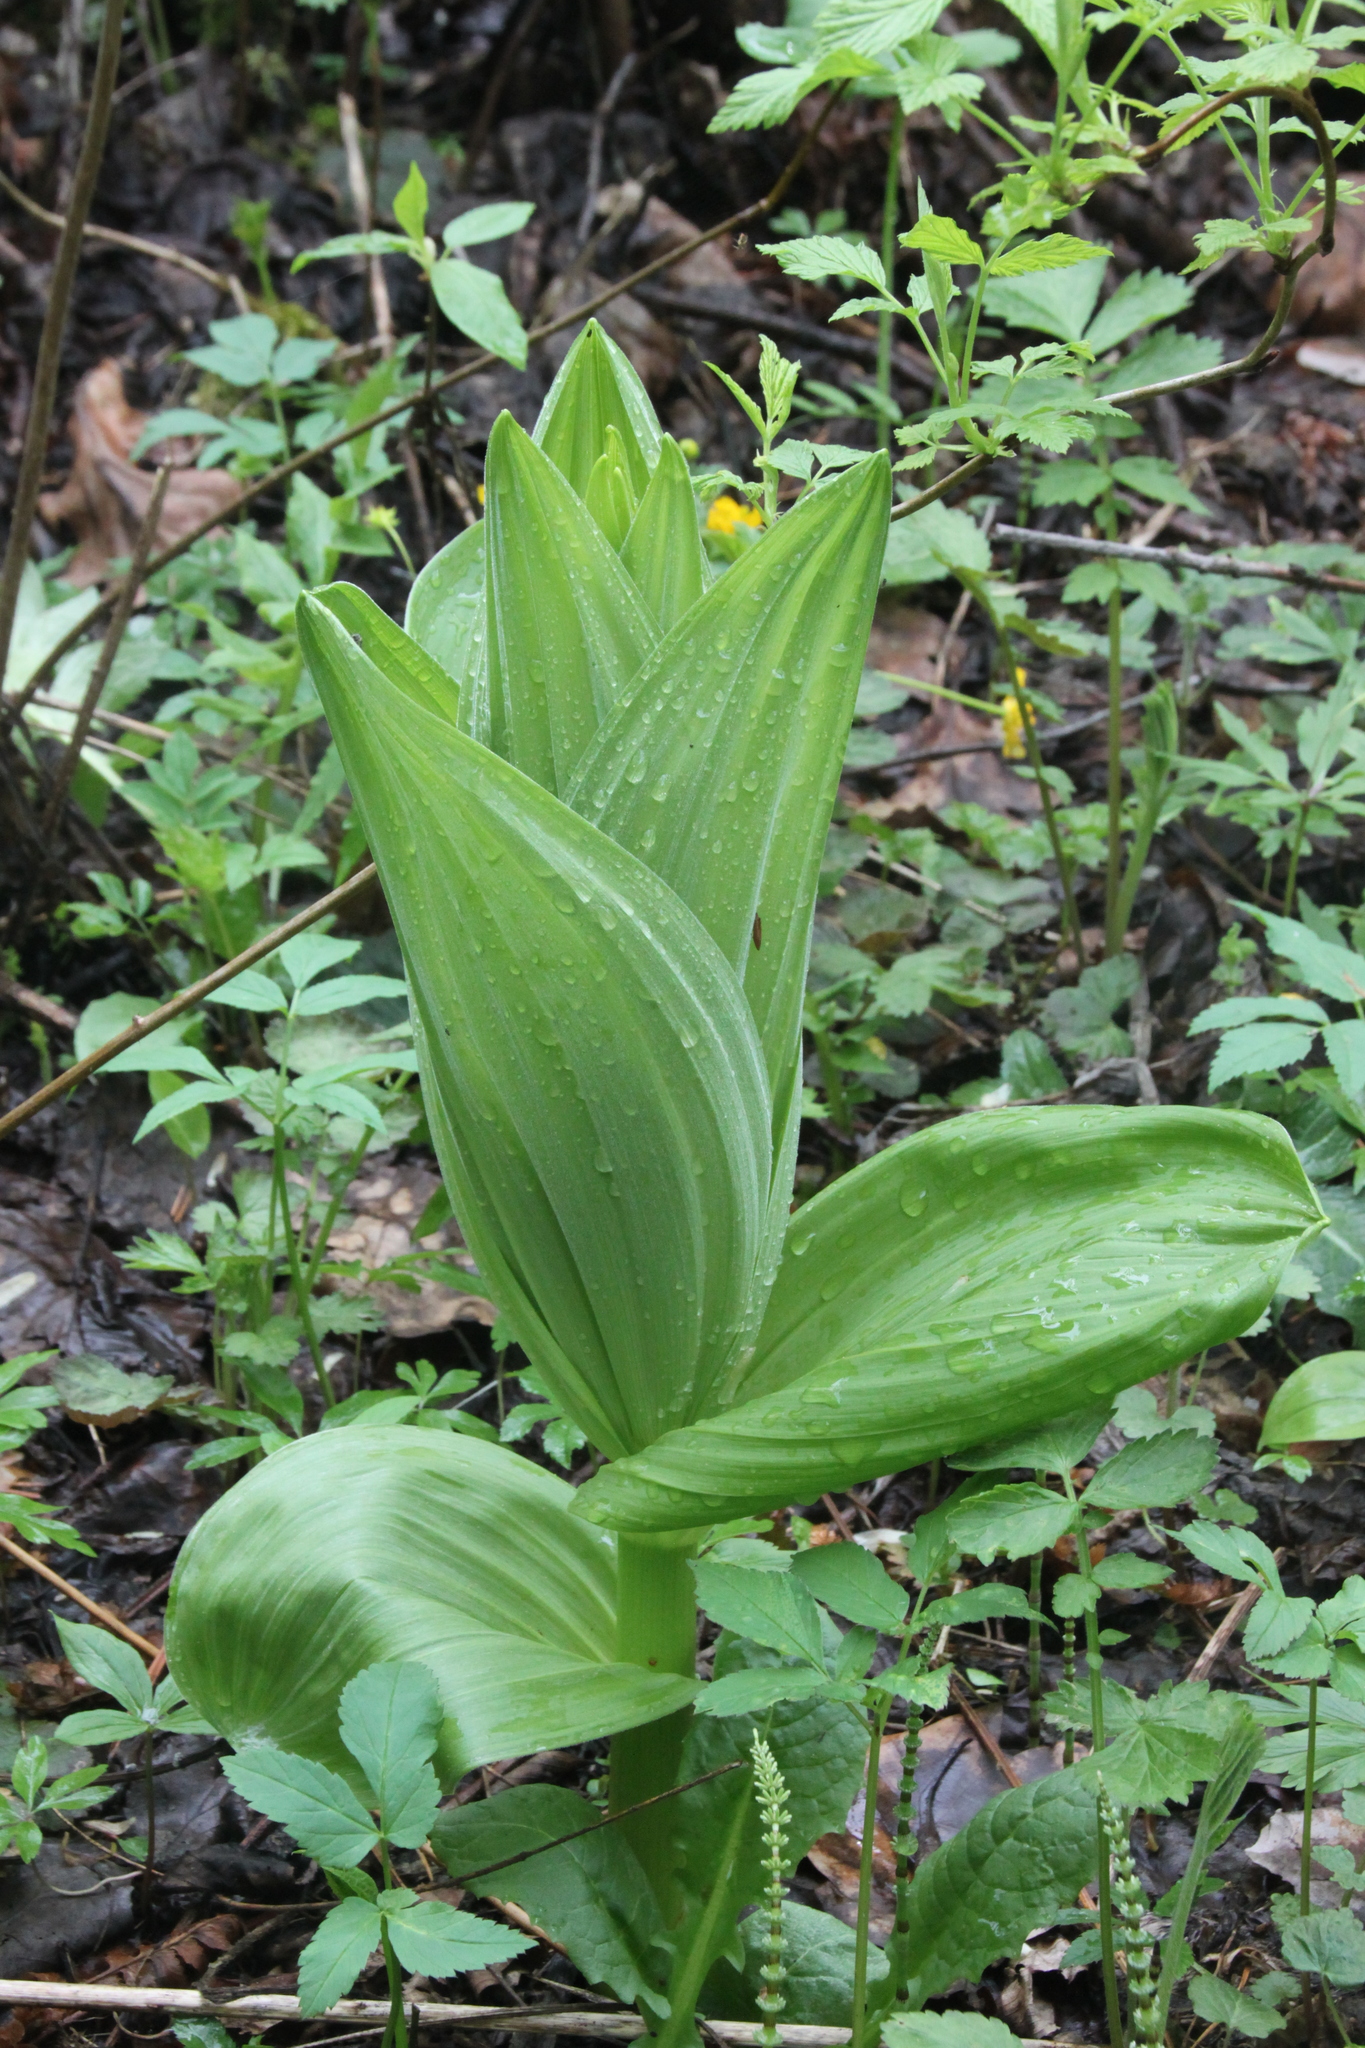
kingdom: Plantae
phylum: Tracheophyta
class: Liliopsida
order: Liliales
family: Melanthiaceae
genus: Veratrum
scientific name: Veratrum lobelianum
